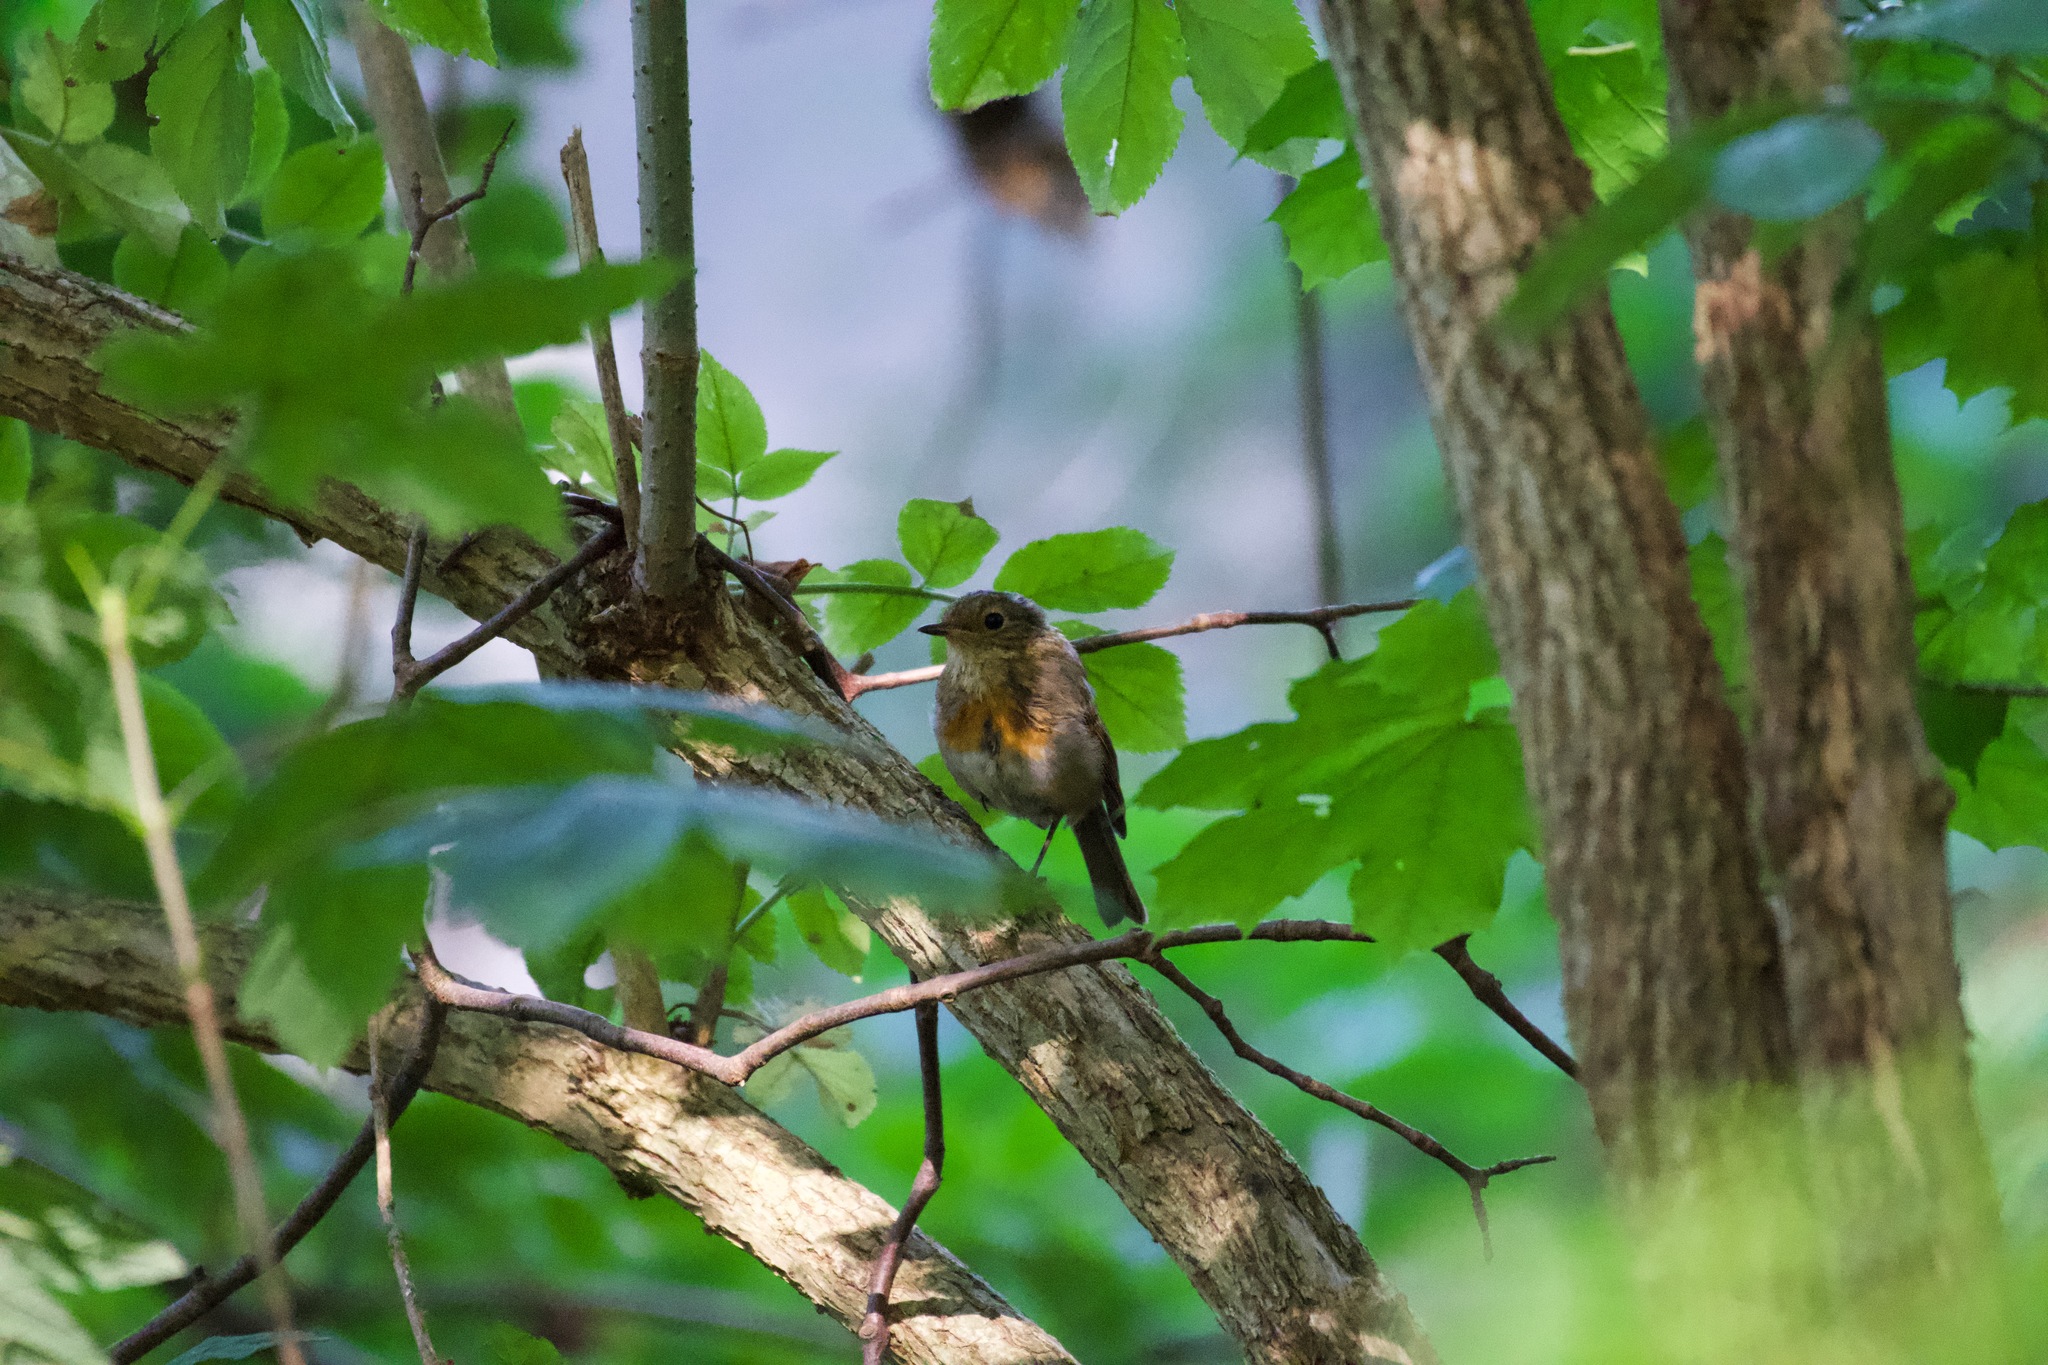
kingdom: Animalia
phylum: Chordata
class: Aves
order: Passeriformes
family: Muscicapidae
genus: Erithacus
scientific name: Erithacus rubecula
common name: European robin
